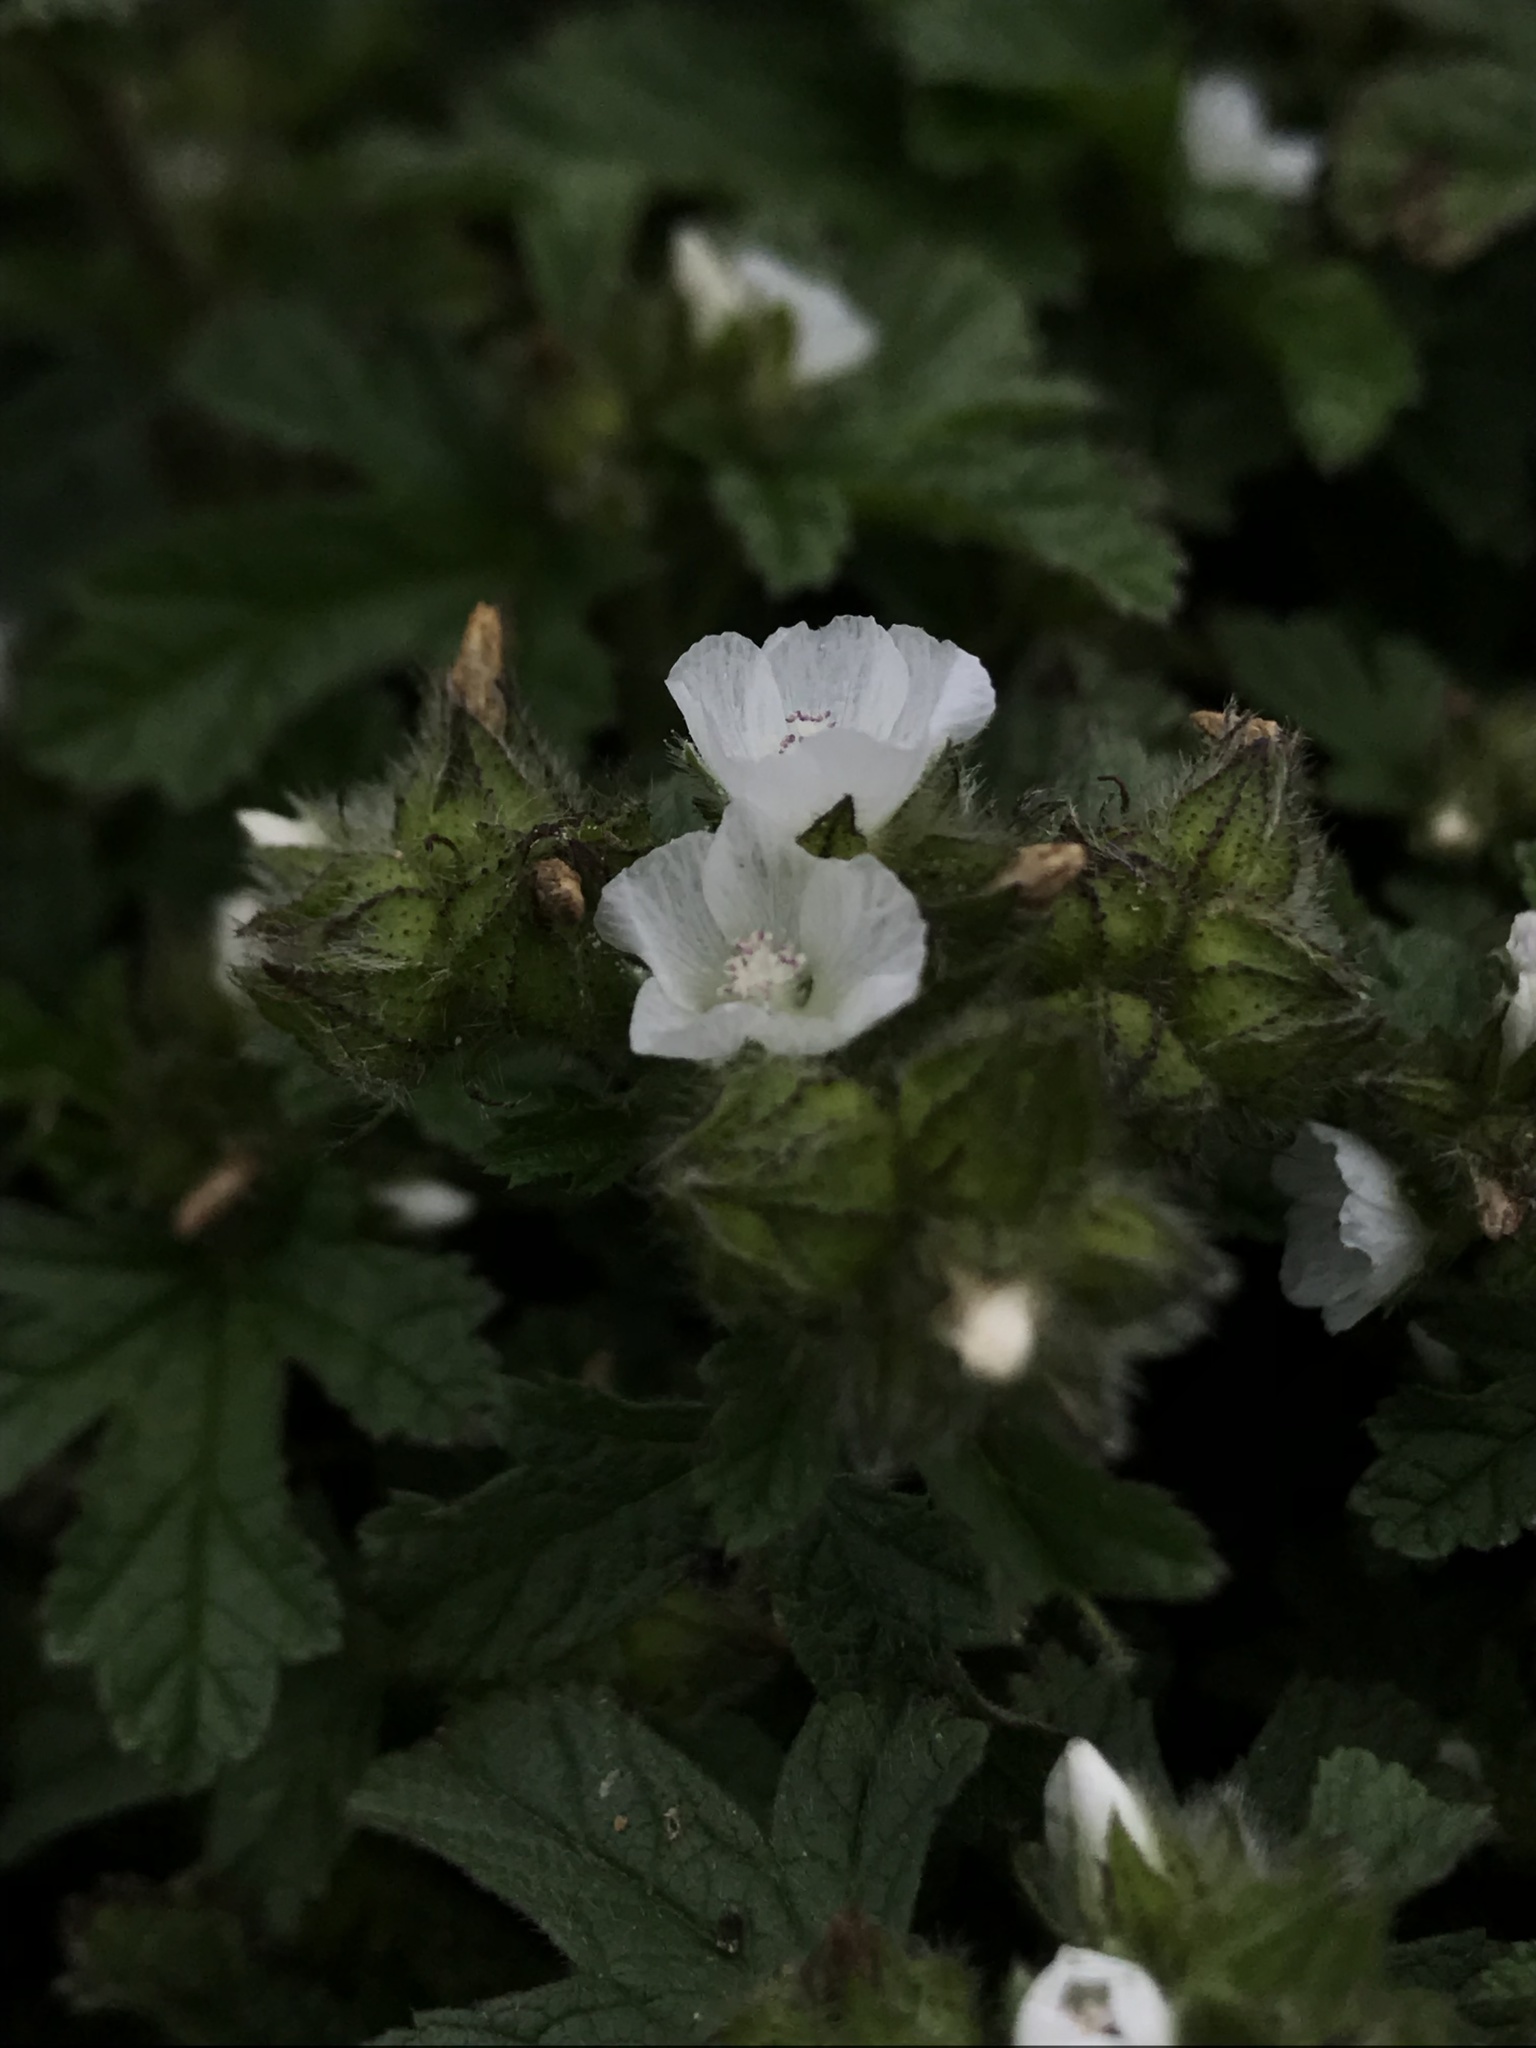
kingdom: Plantae
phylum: Tracheophyta
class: Magnoliopsida
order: Malvales
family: Malvaceae
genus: Fuertesimalva
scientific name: Fuertesimalva limensis
